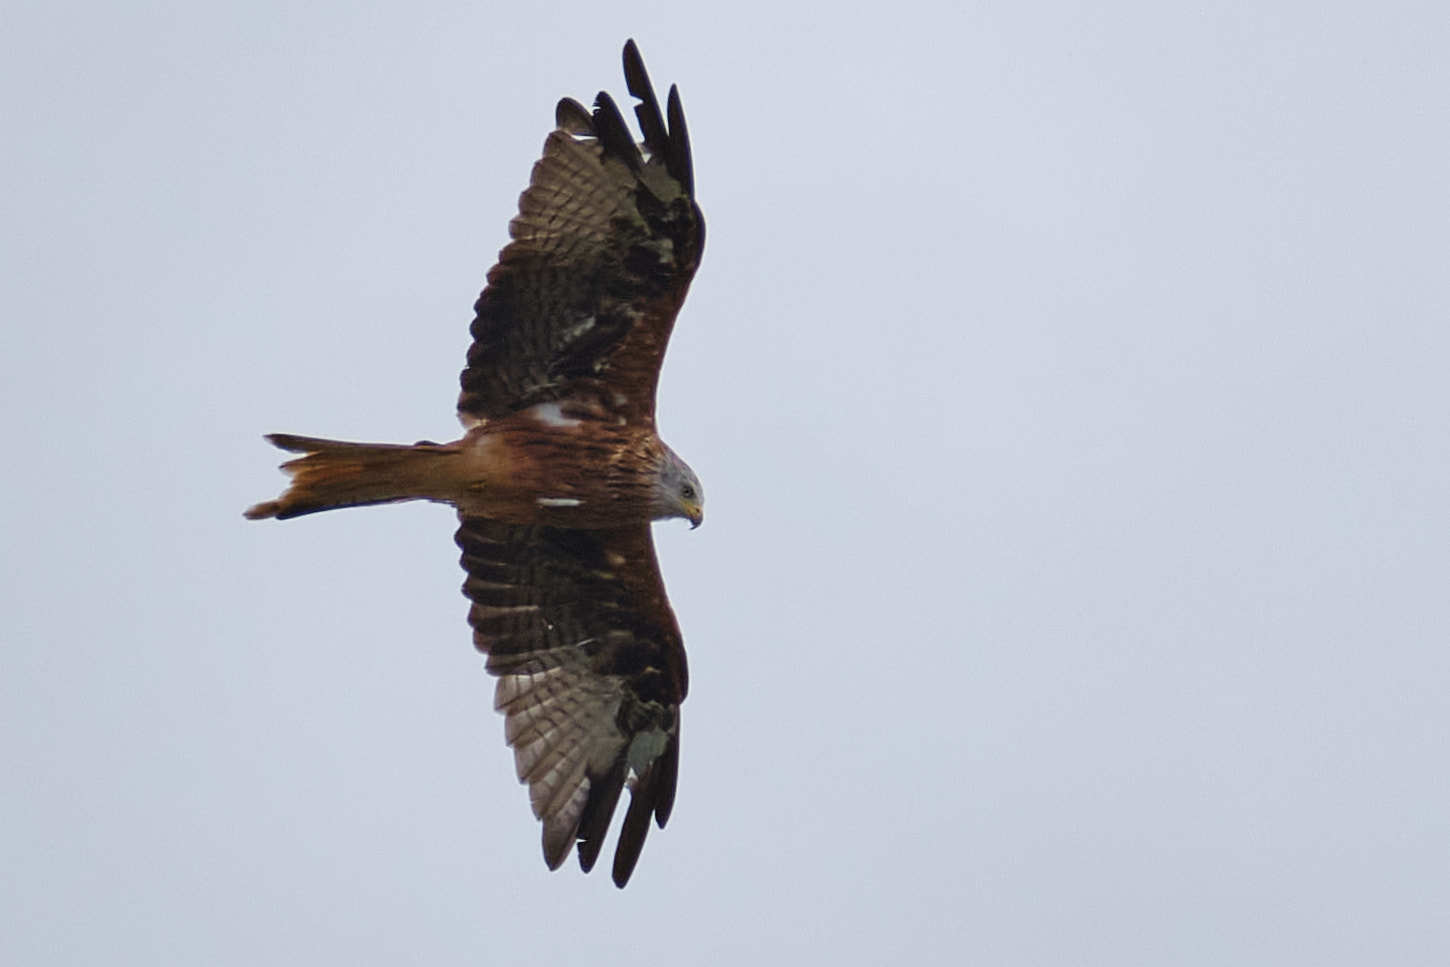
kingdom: Animalia
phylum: Chordata
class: Aves
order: Accipitriformes
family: Accipitridae
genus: Milvus
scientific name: Milvus milvus
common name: Red kite
